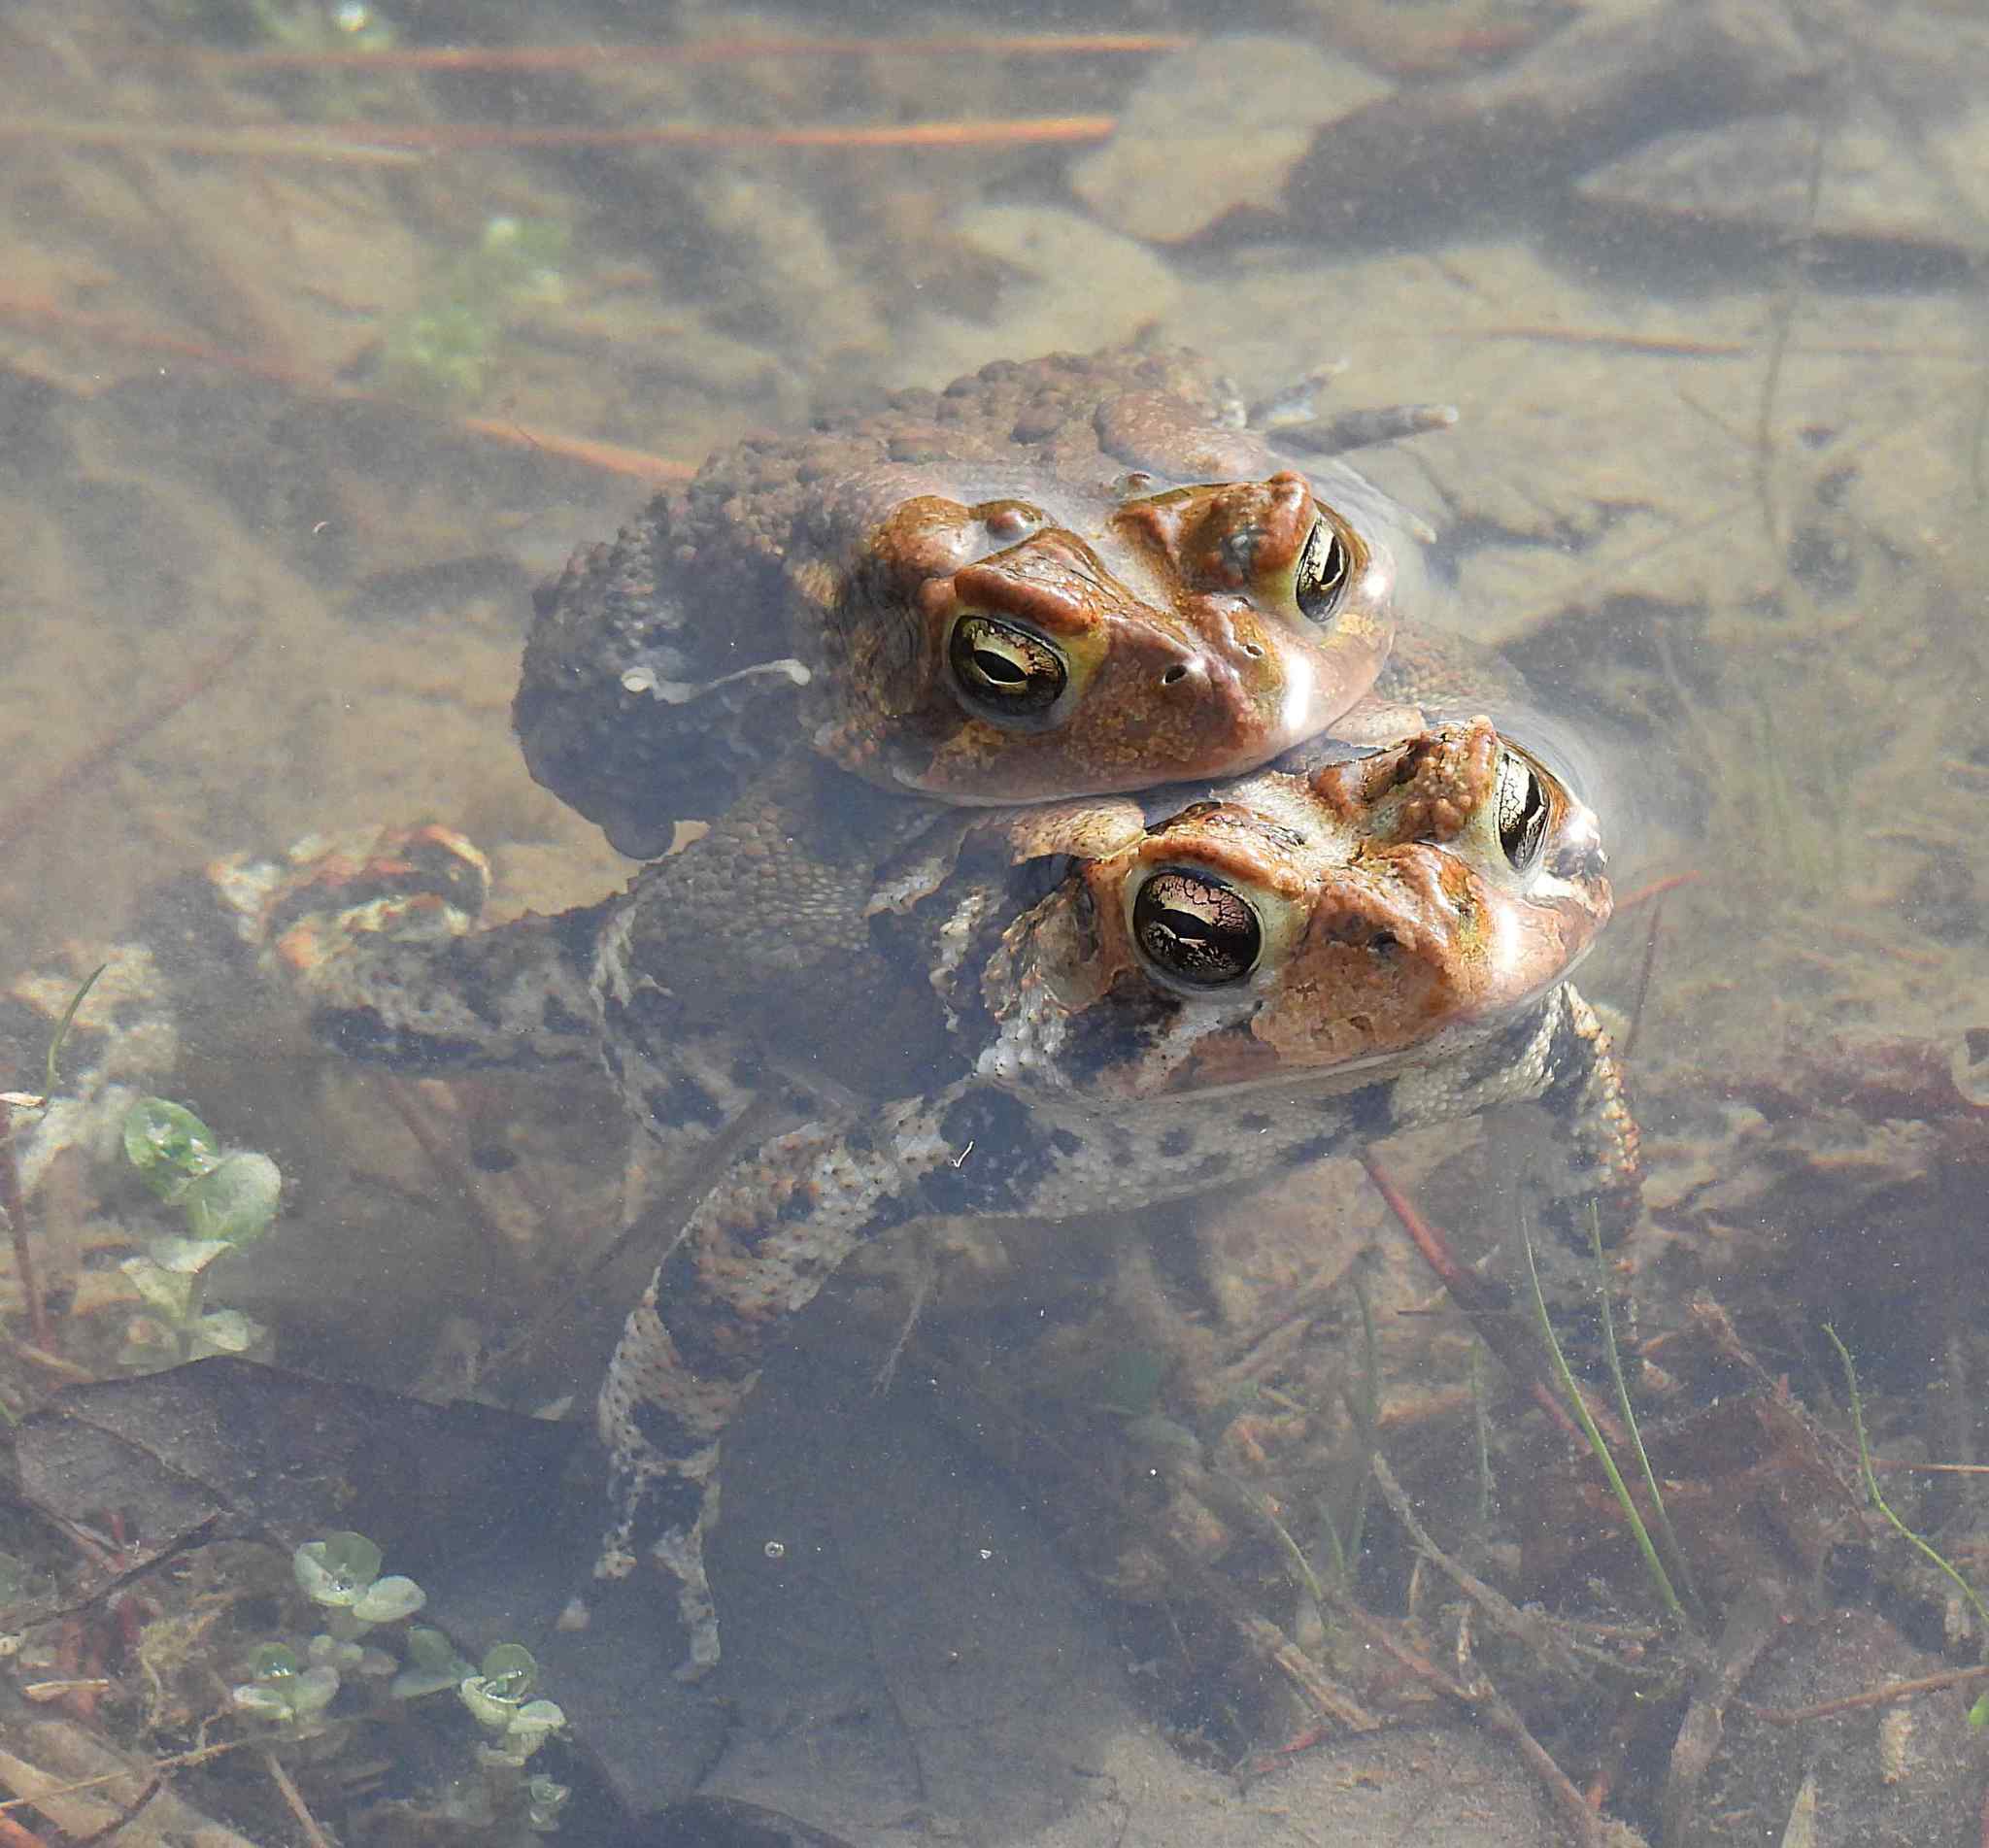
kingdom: Animalia
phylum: Chordata
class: Amphibia
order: Anura
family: Bufonidae
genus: Anaxyrus
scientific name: Anaxyrus americanus
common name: American toad
